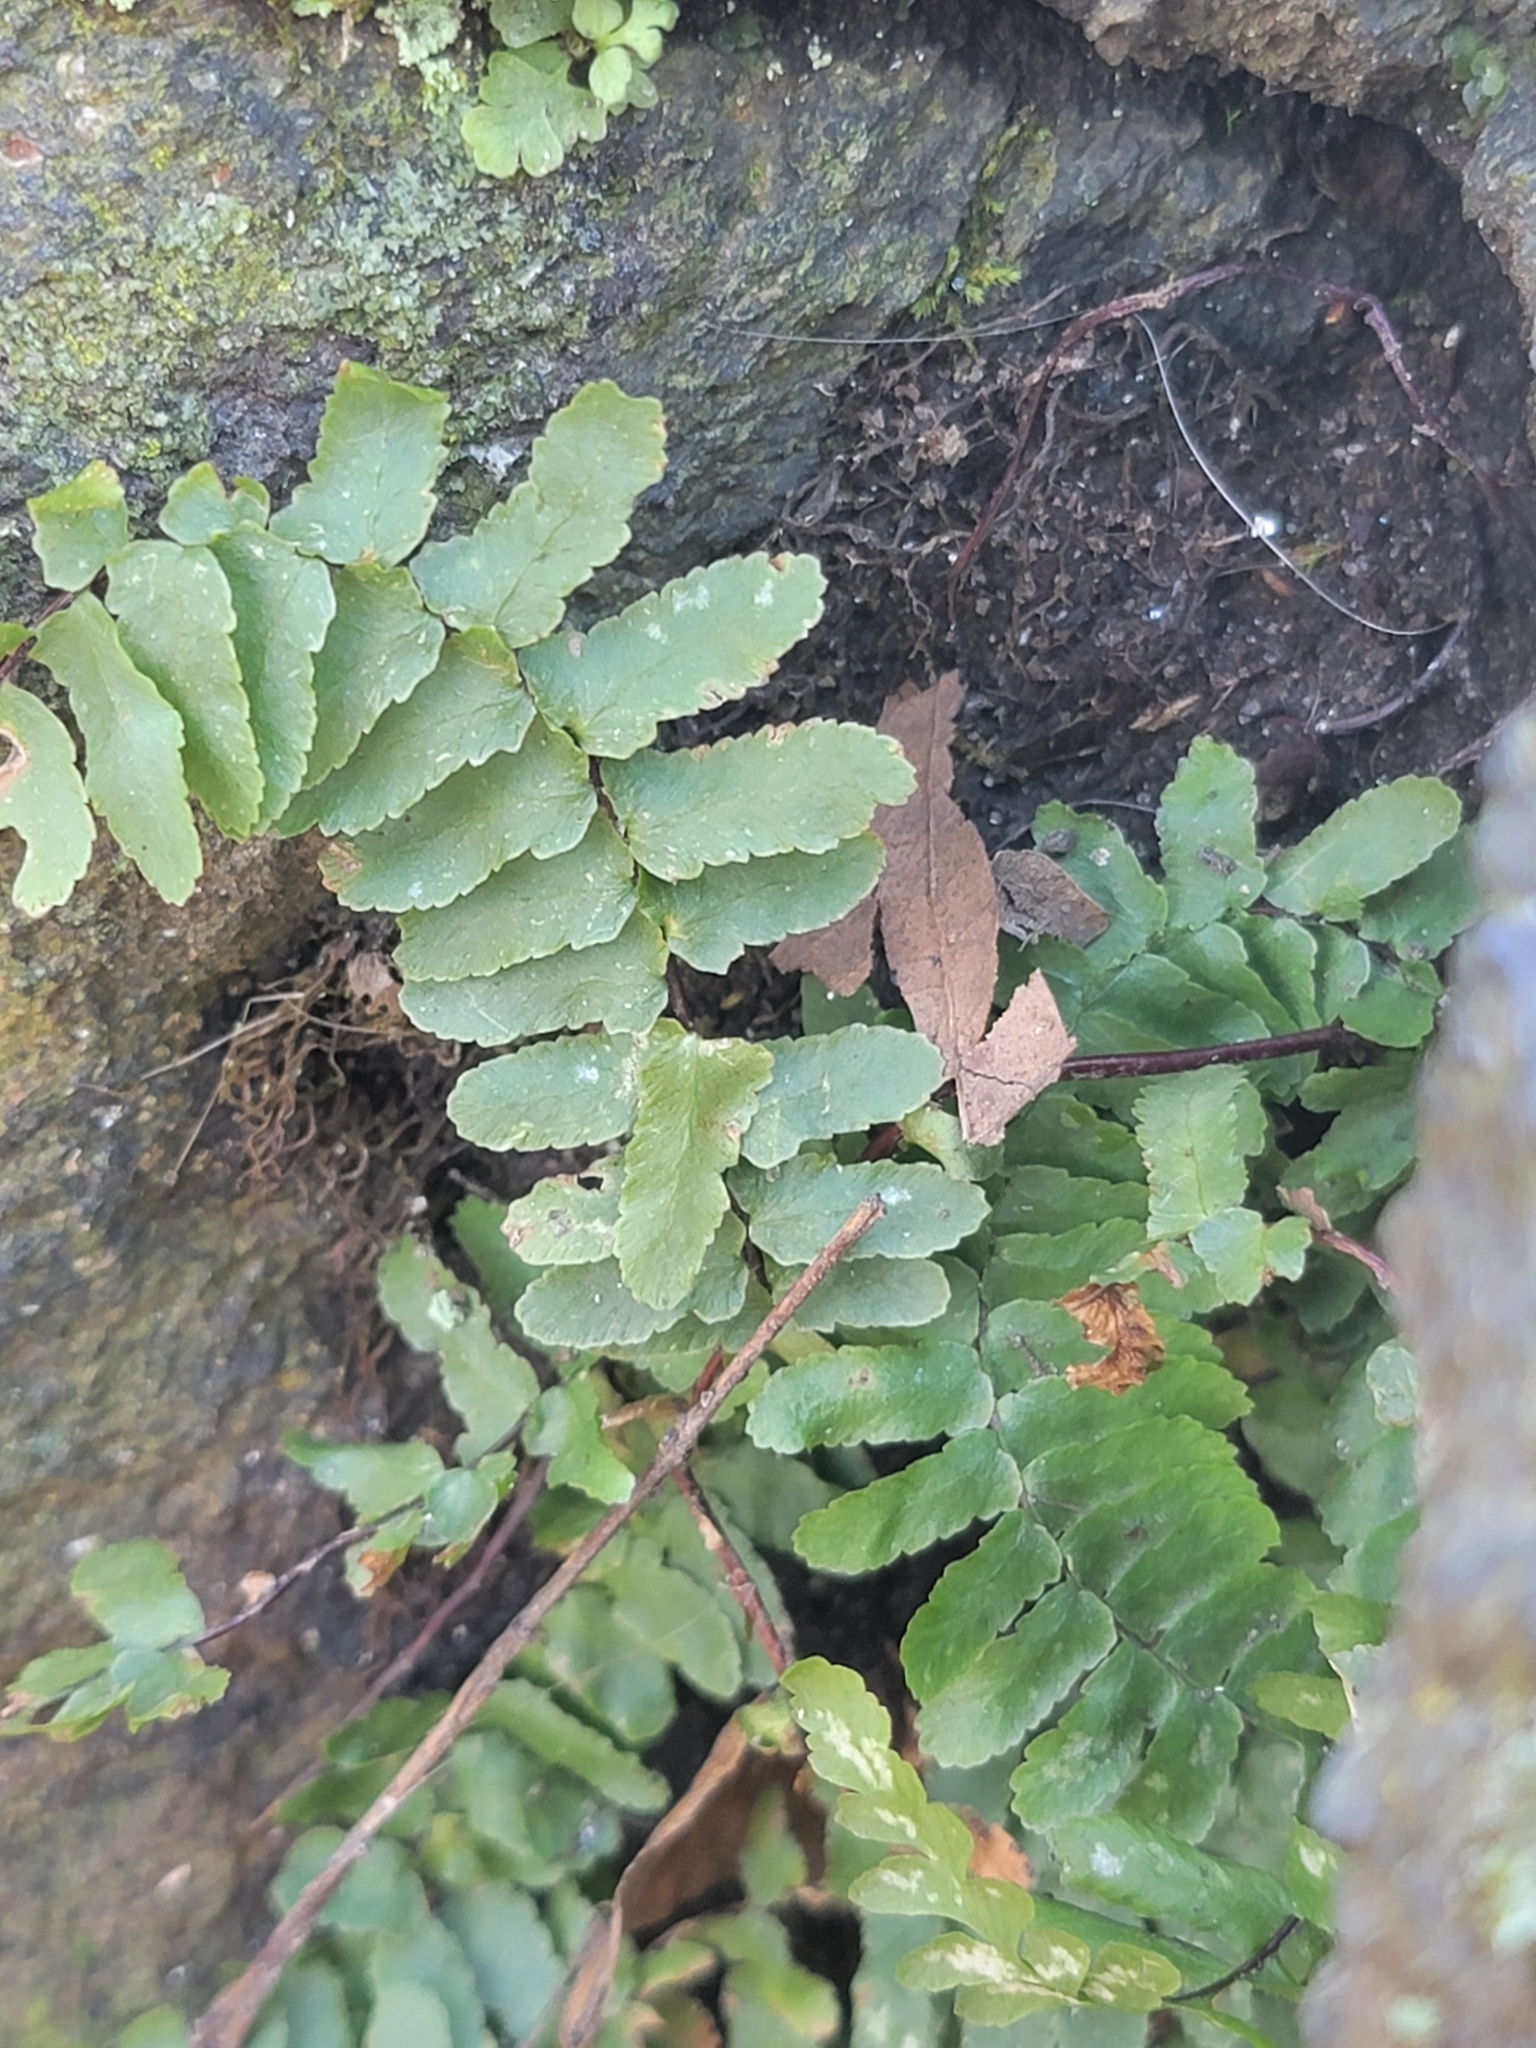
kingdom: Plantae
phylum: Tracheophyta
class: Polypodiopsida
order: Polypodiales
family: Aspleniaceae
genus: Asplenium
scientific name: Asplenium platyneuron
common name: Ebony spleenwort
